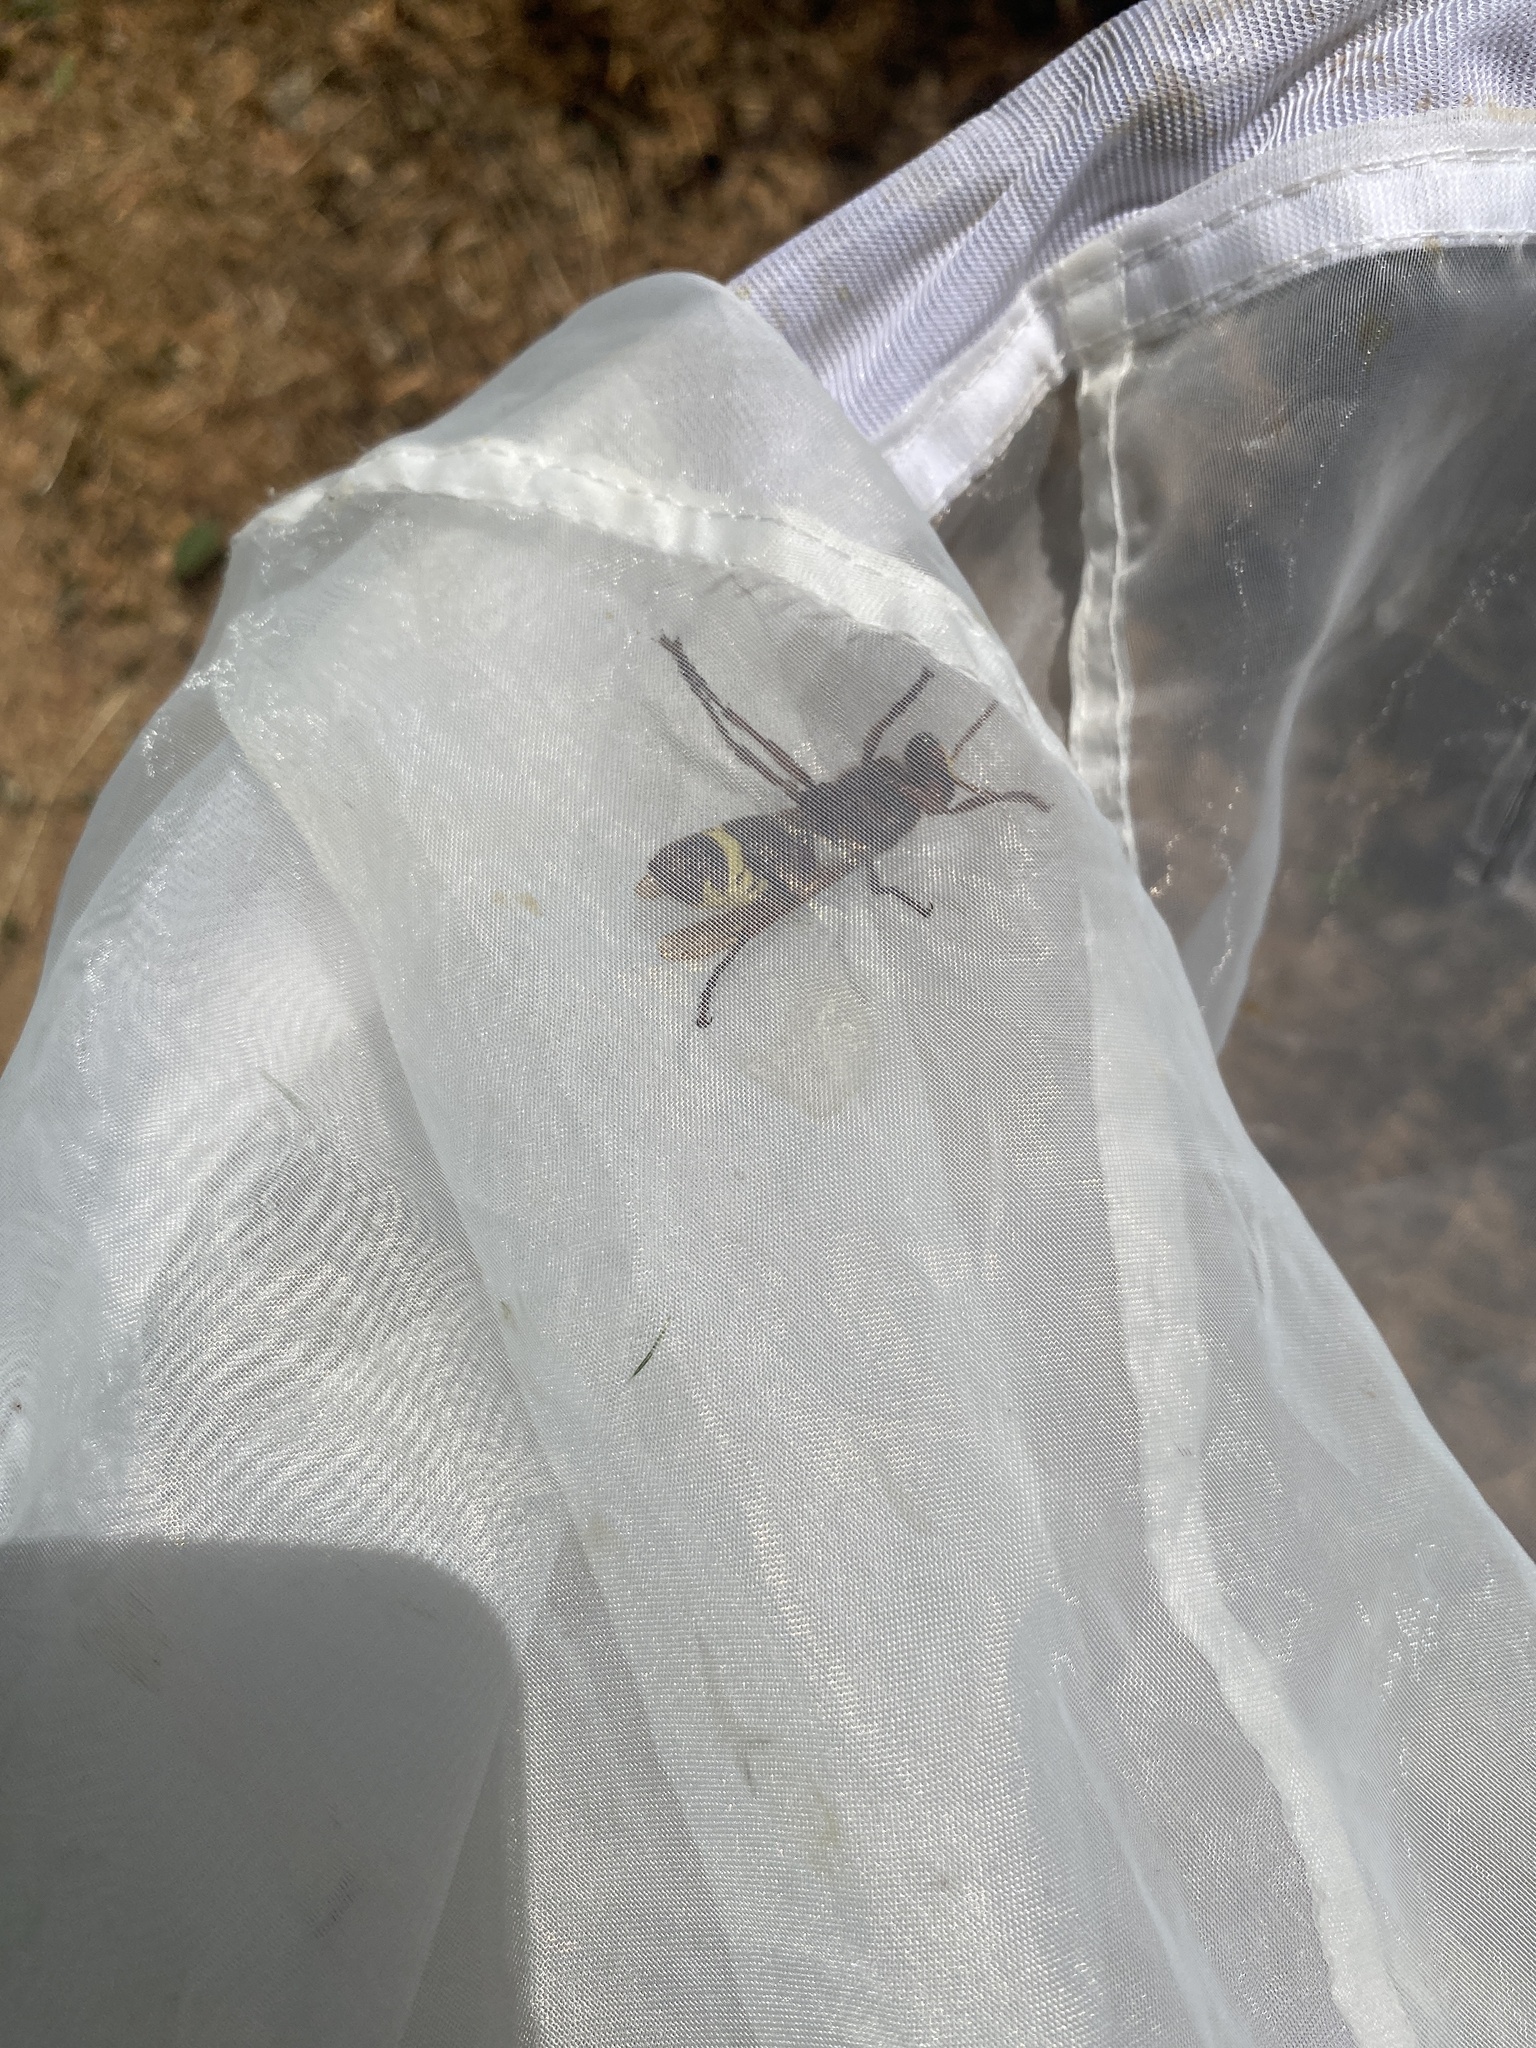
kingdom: Animalia
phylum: Arthropoda
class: Insecta
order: Hymenoptera
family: Vespidae
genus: Vespa
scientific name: Vespa orientalis
